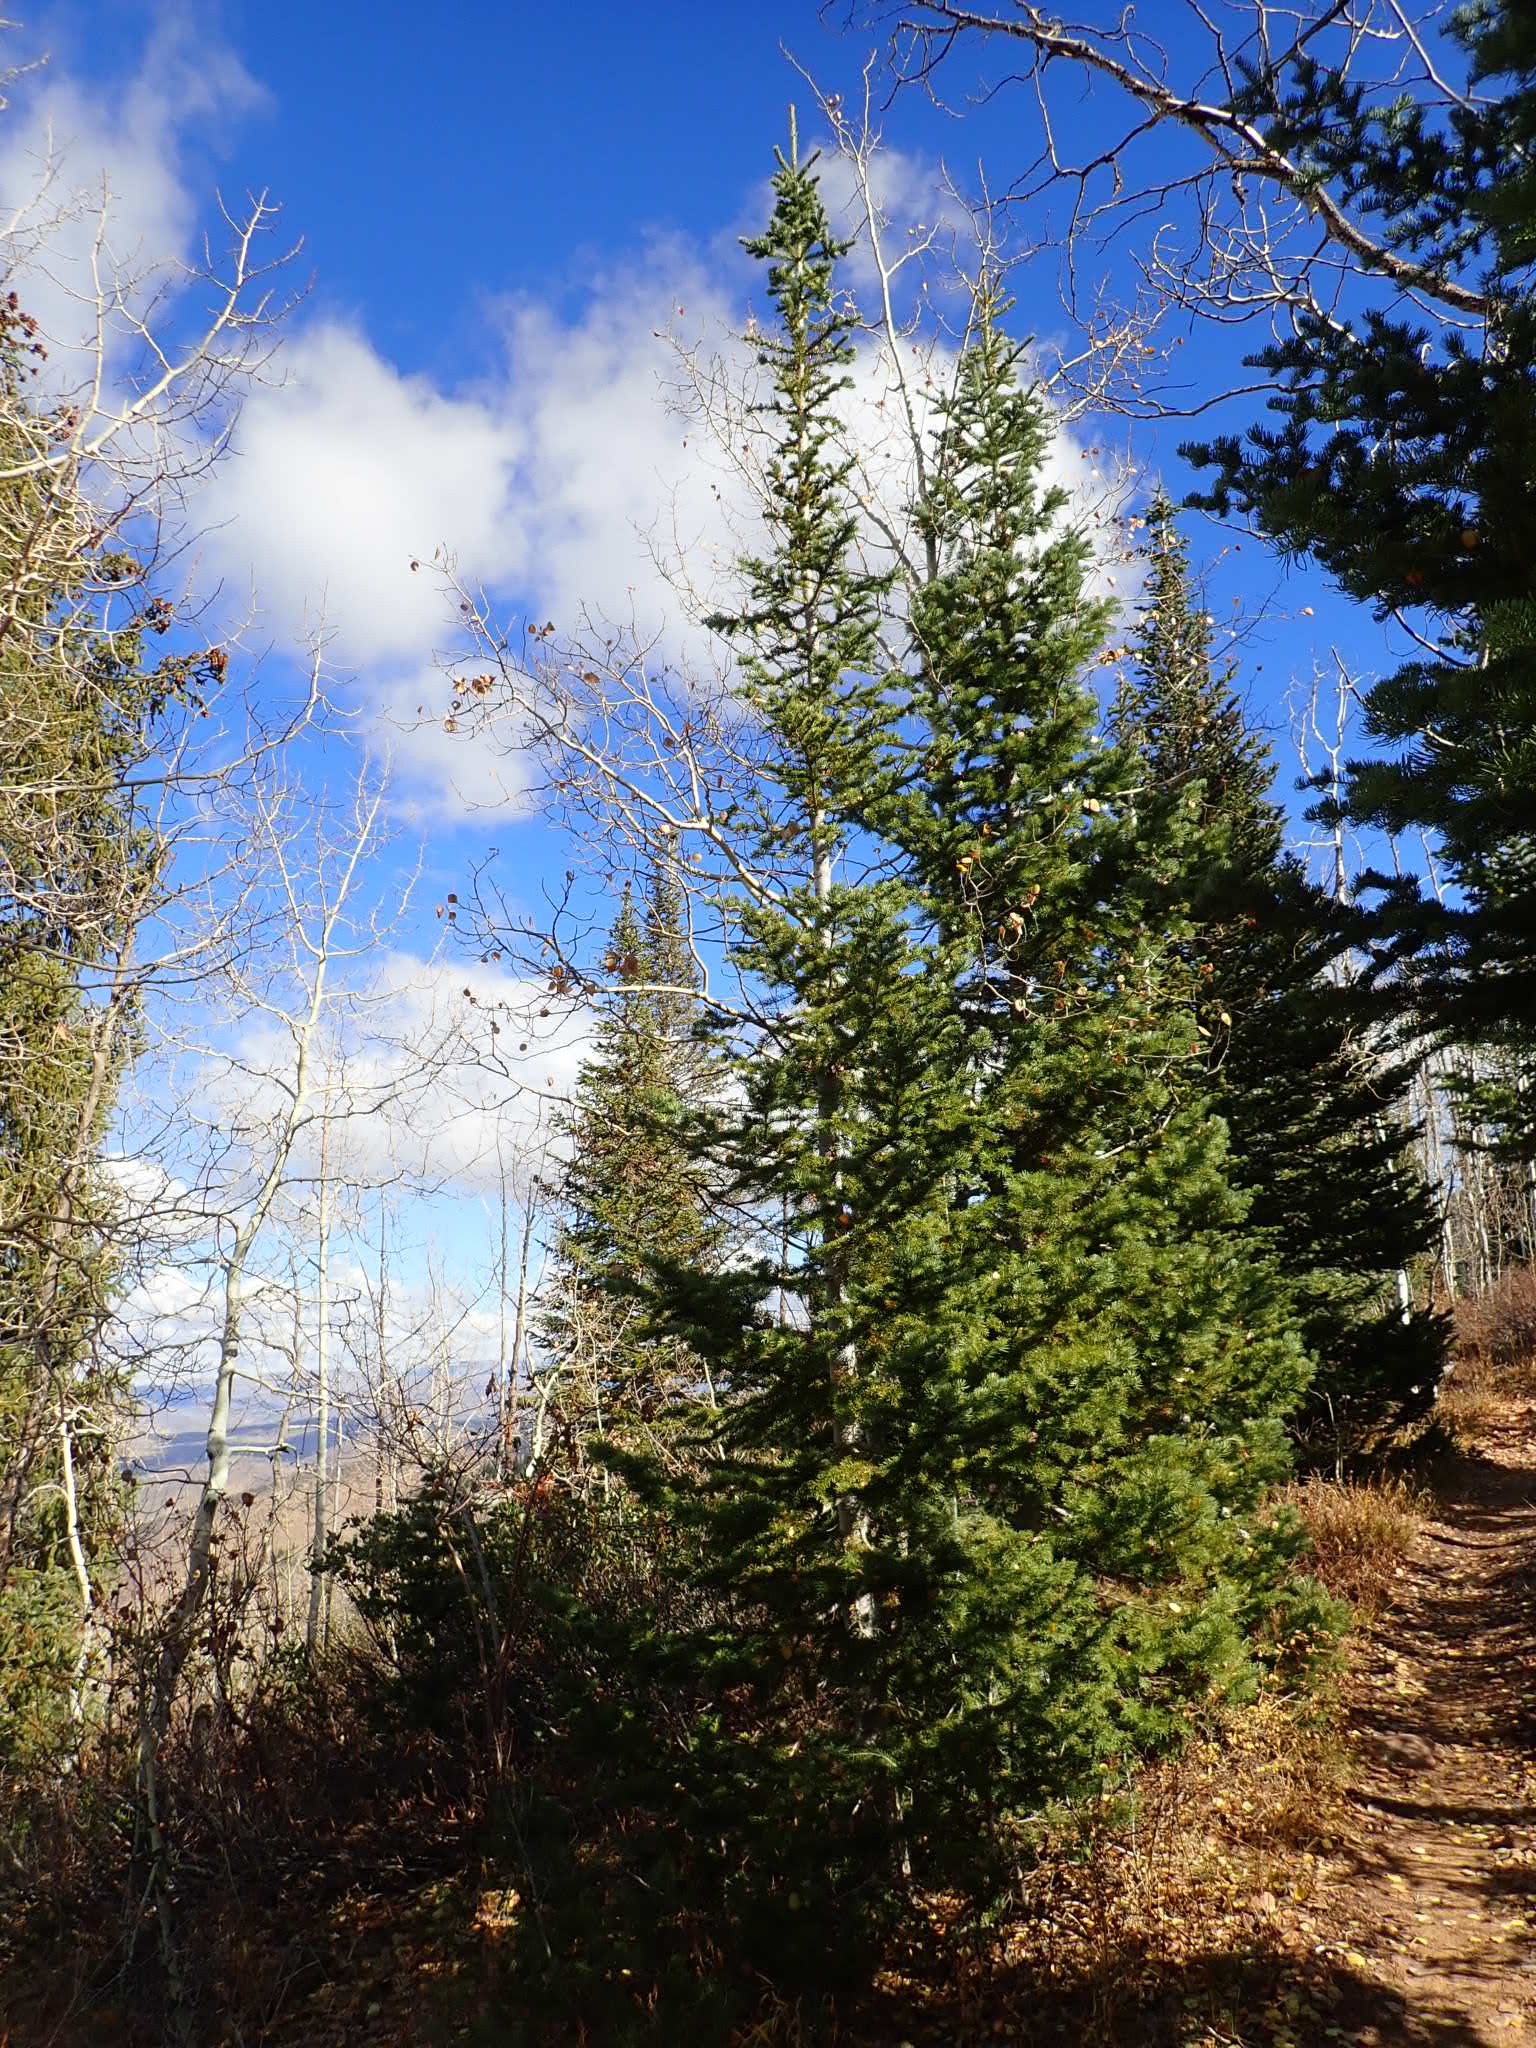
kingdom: Plantae
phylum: Tracheophyta
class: Pinopsida
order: Pinales
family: Pinaceae
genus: Abies
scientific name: Abies concolor
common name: Colorado fir
